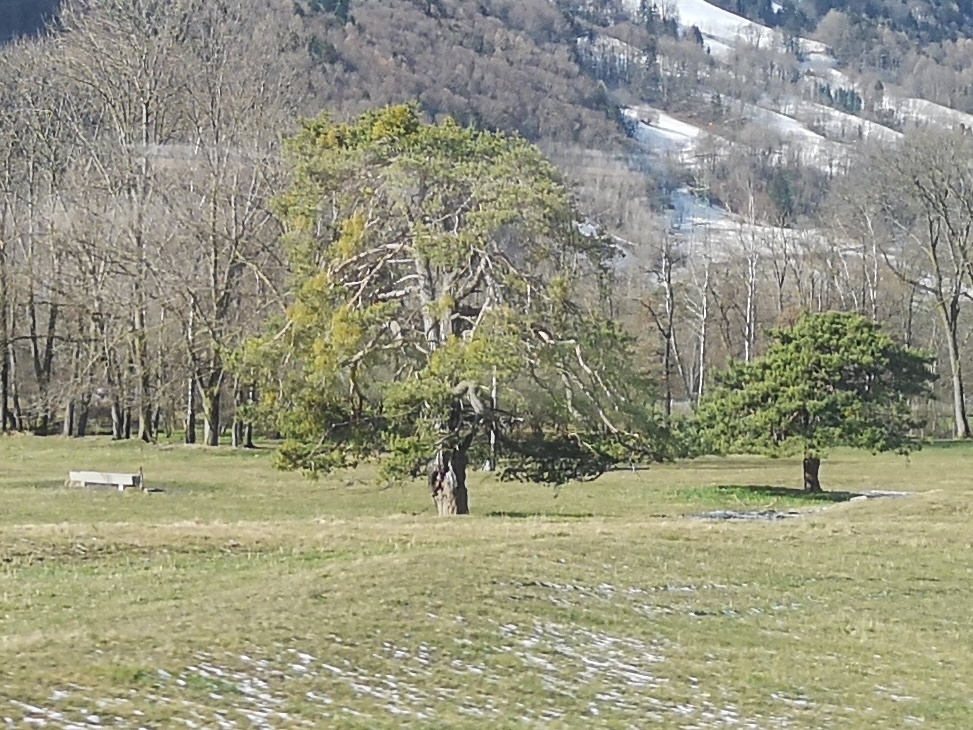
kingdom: Plantae
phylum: Tracheophyta
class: Magnoliopsida
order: Santalales
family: Viscaceae
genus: Viscum
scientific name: Viscum laxum
